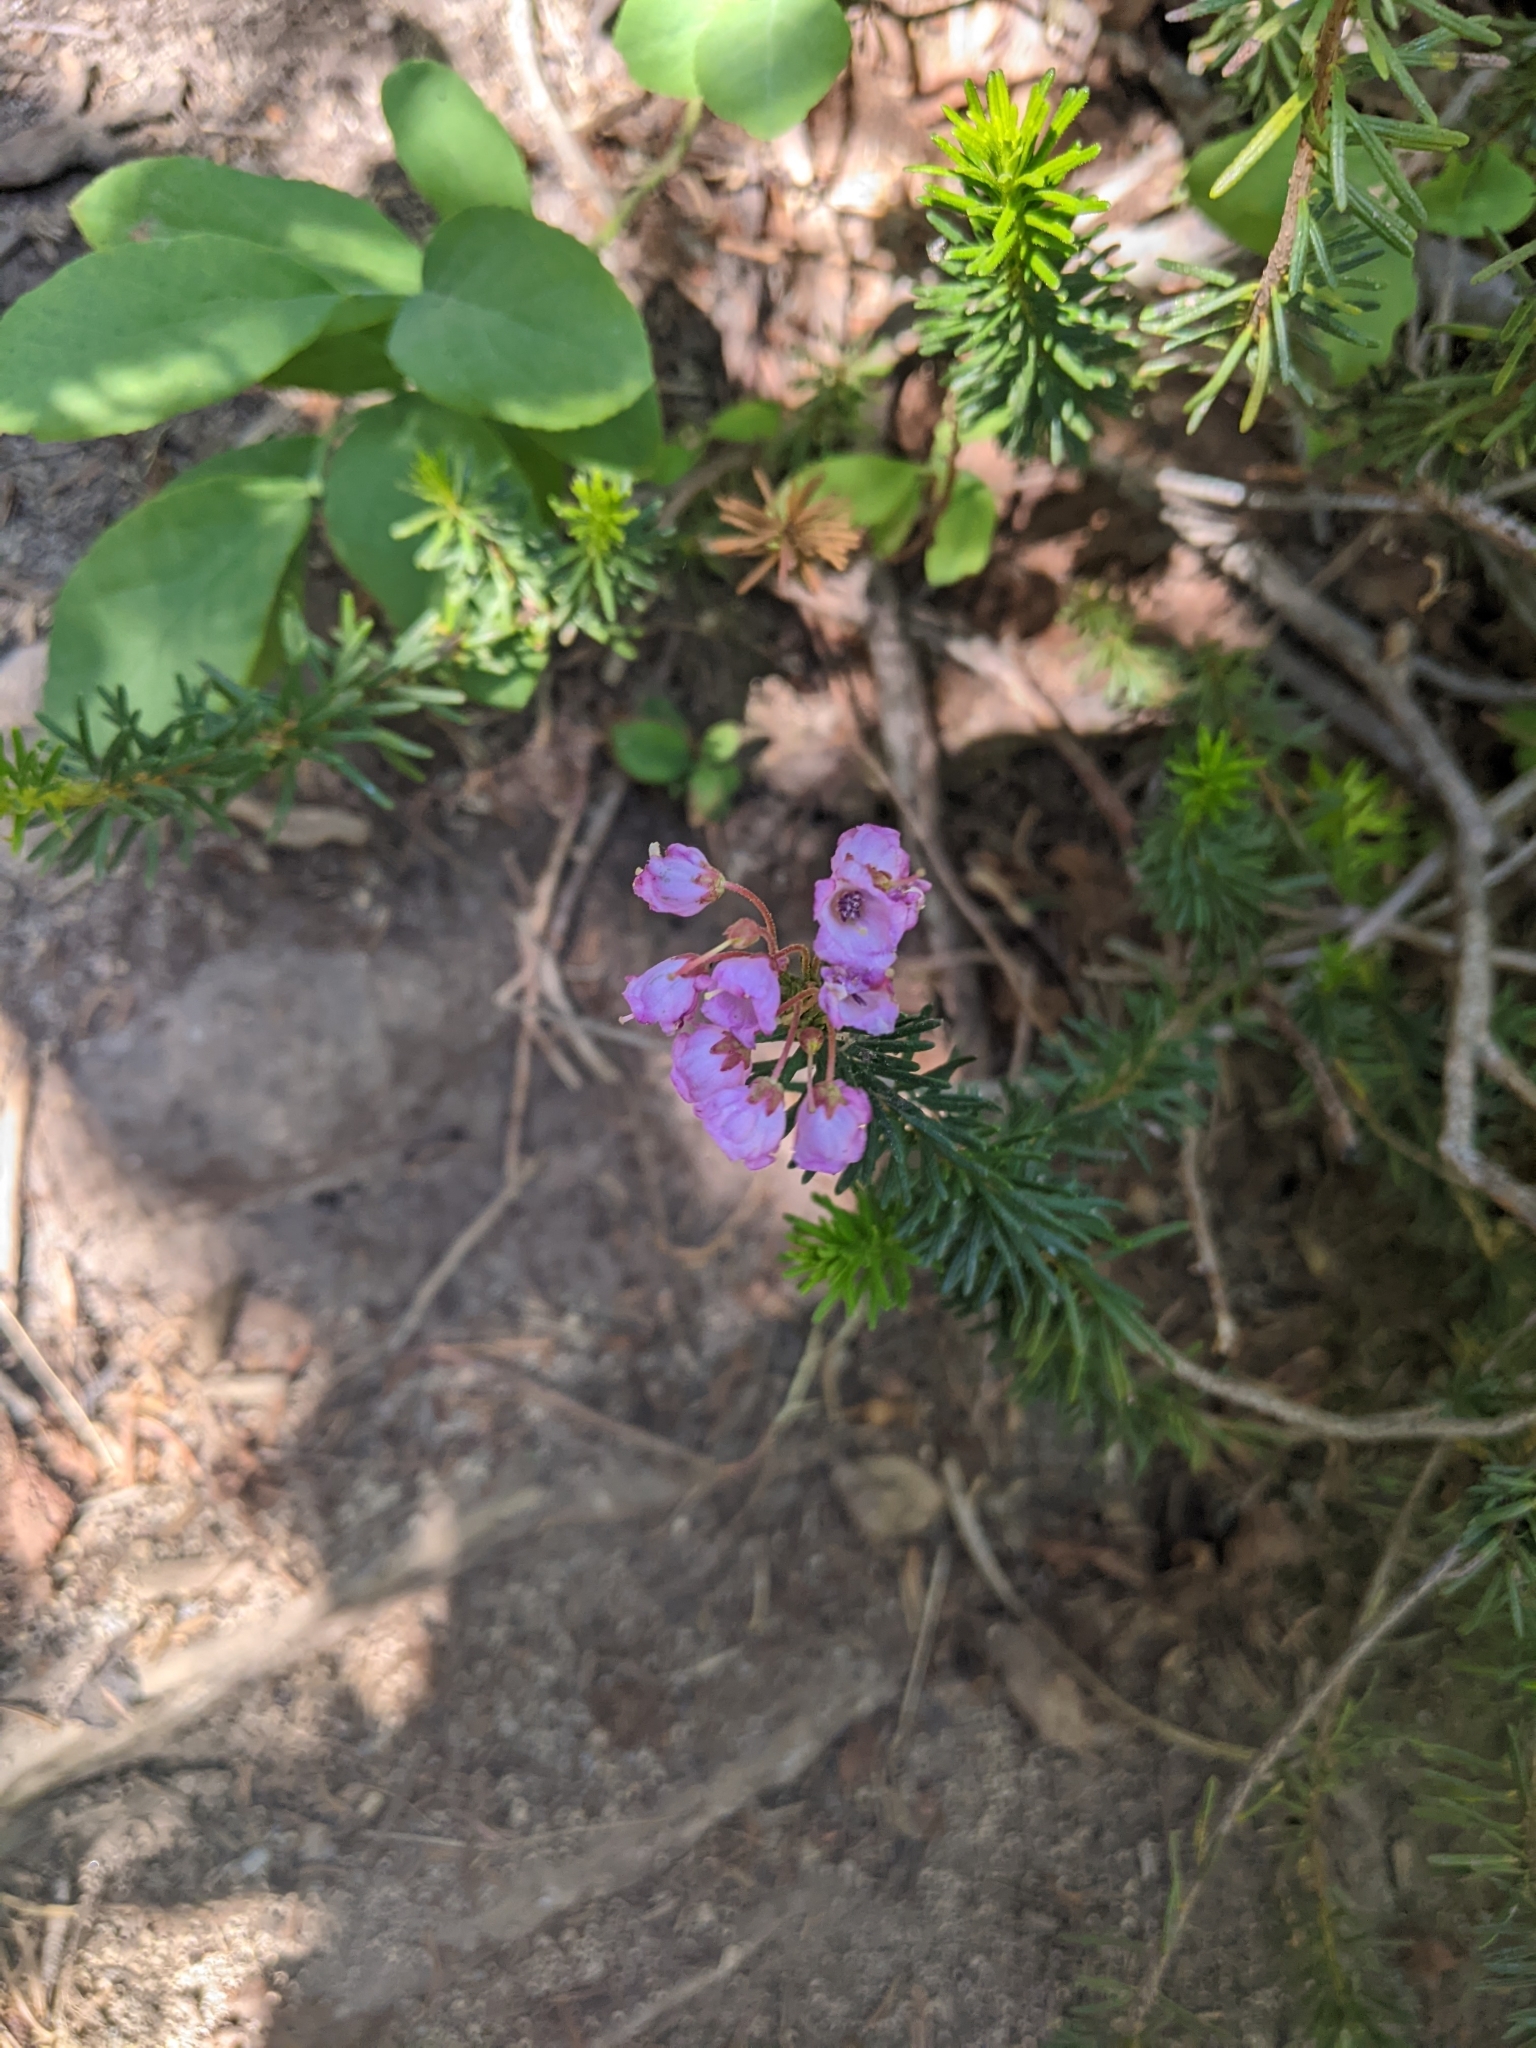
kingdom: Plantae
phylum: Tracheophyta
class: Magnoliopsida
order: Ericales
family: Ericaceae
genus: Phyllodoce
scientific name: Phyllodoce empetriformis
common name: Pink mountain heather
